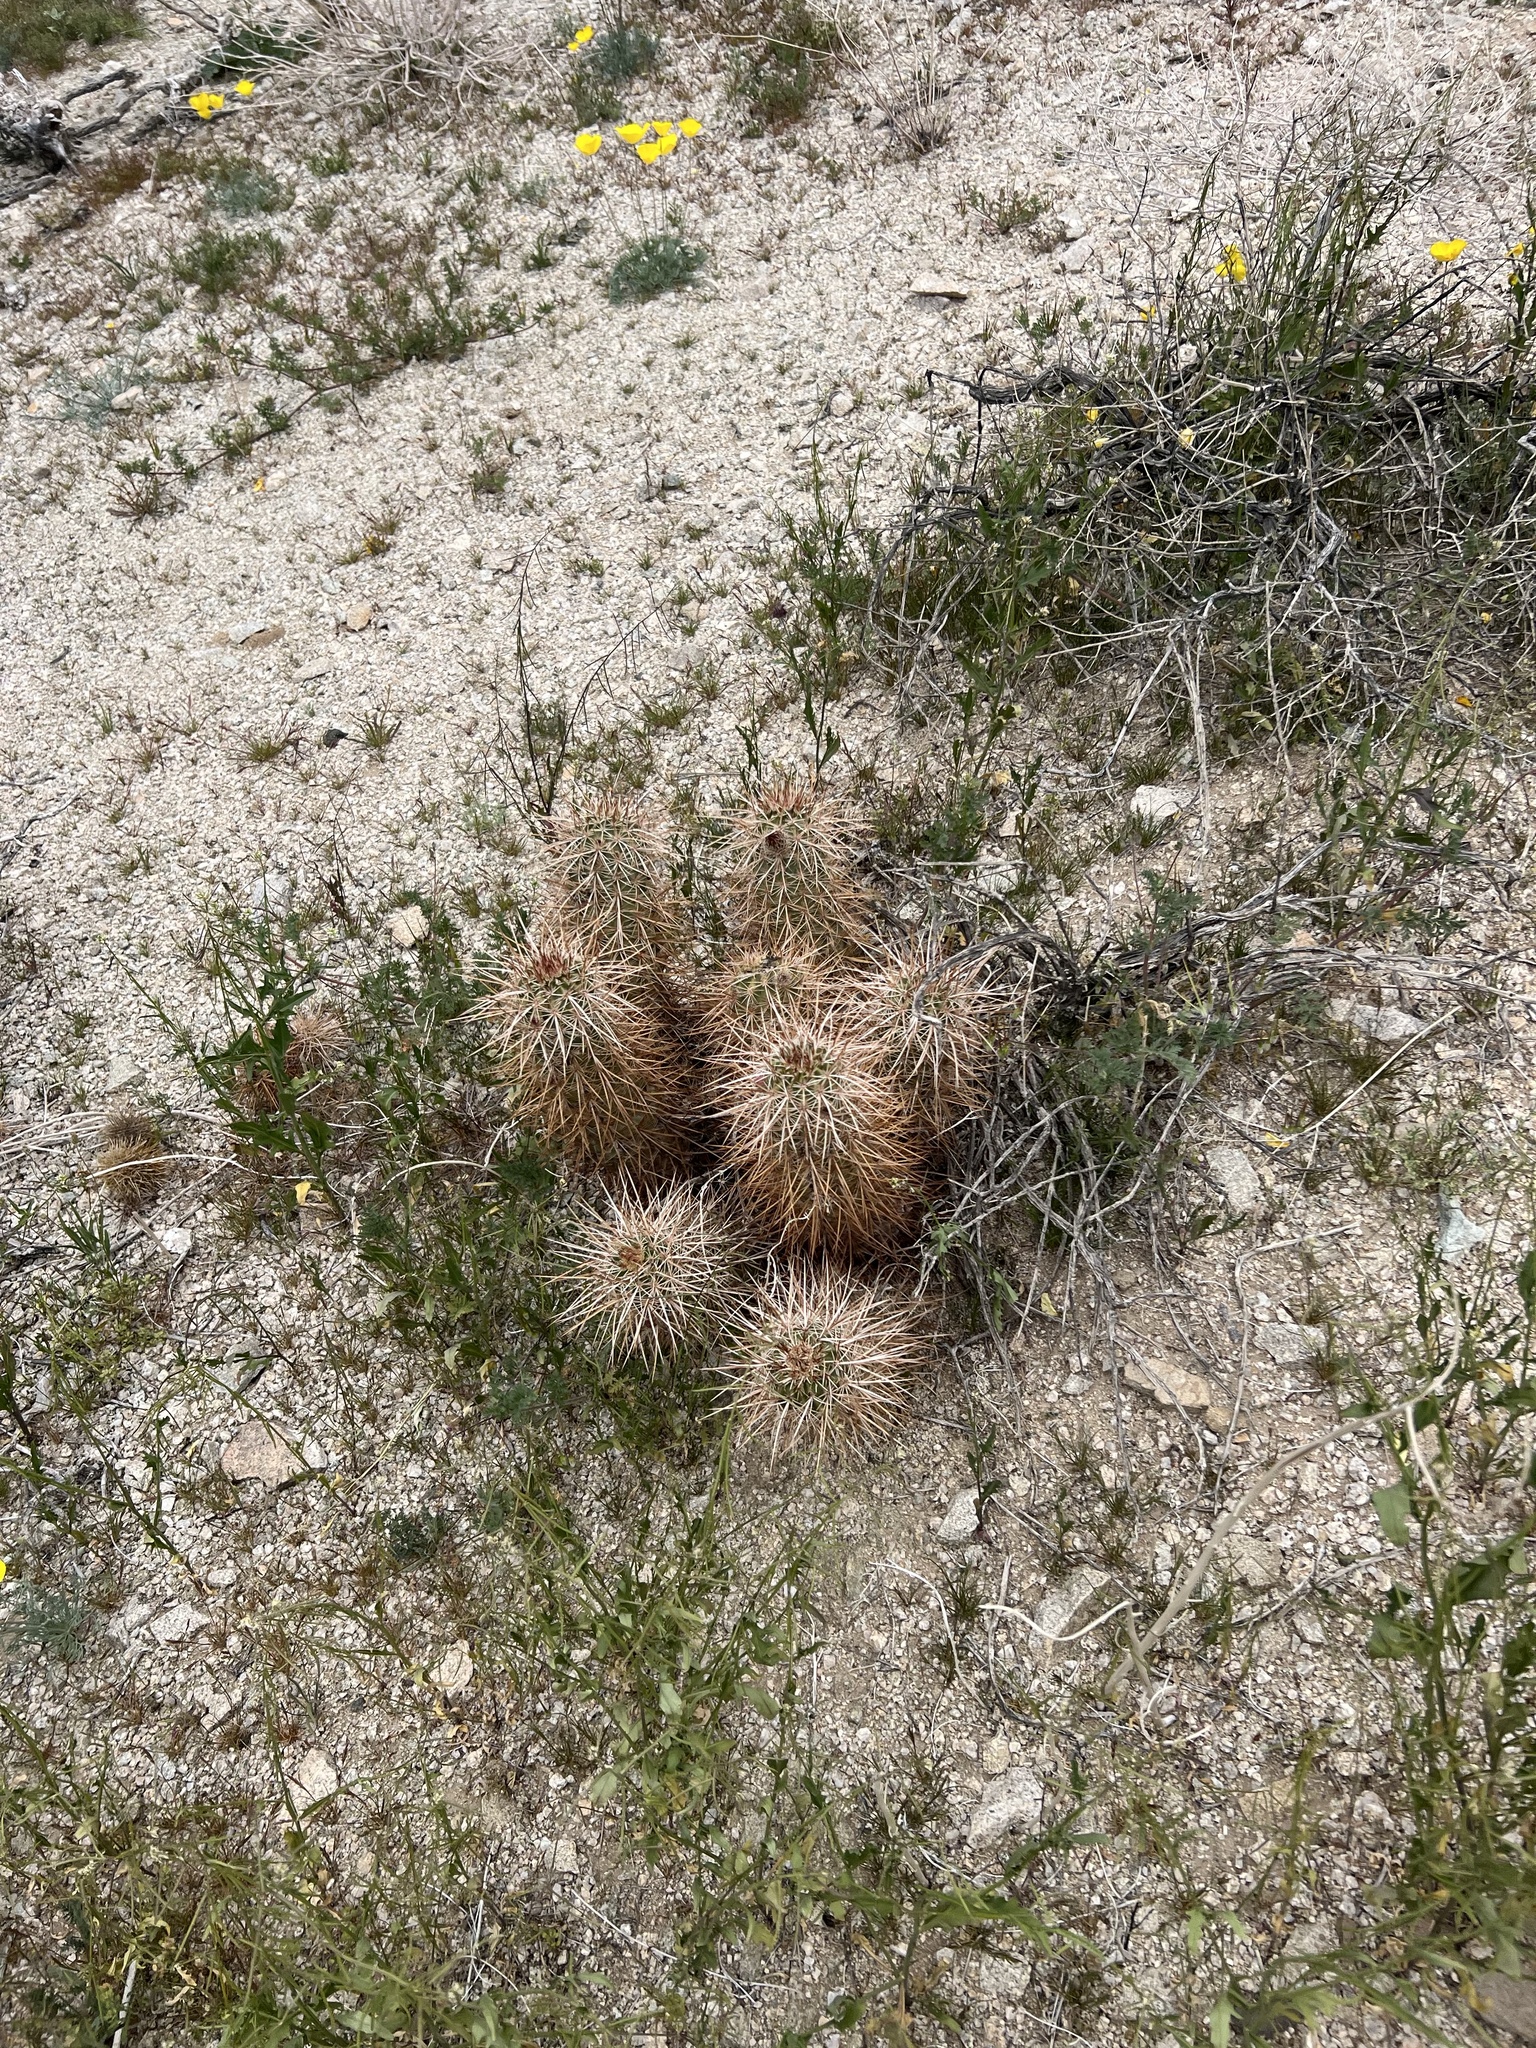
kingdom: Plantae
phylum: Tracheophyta
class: Magnoliopsida
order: Caryophyllales
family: Cactaceae
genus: Echinocereus
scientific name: Echinocereus engelmannii
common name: Engelmann's hedgehog cactus
